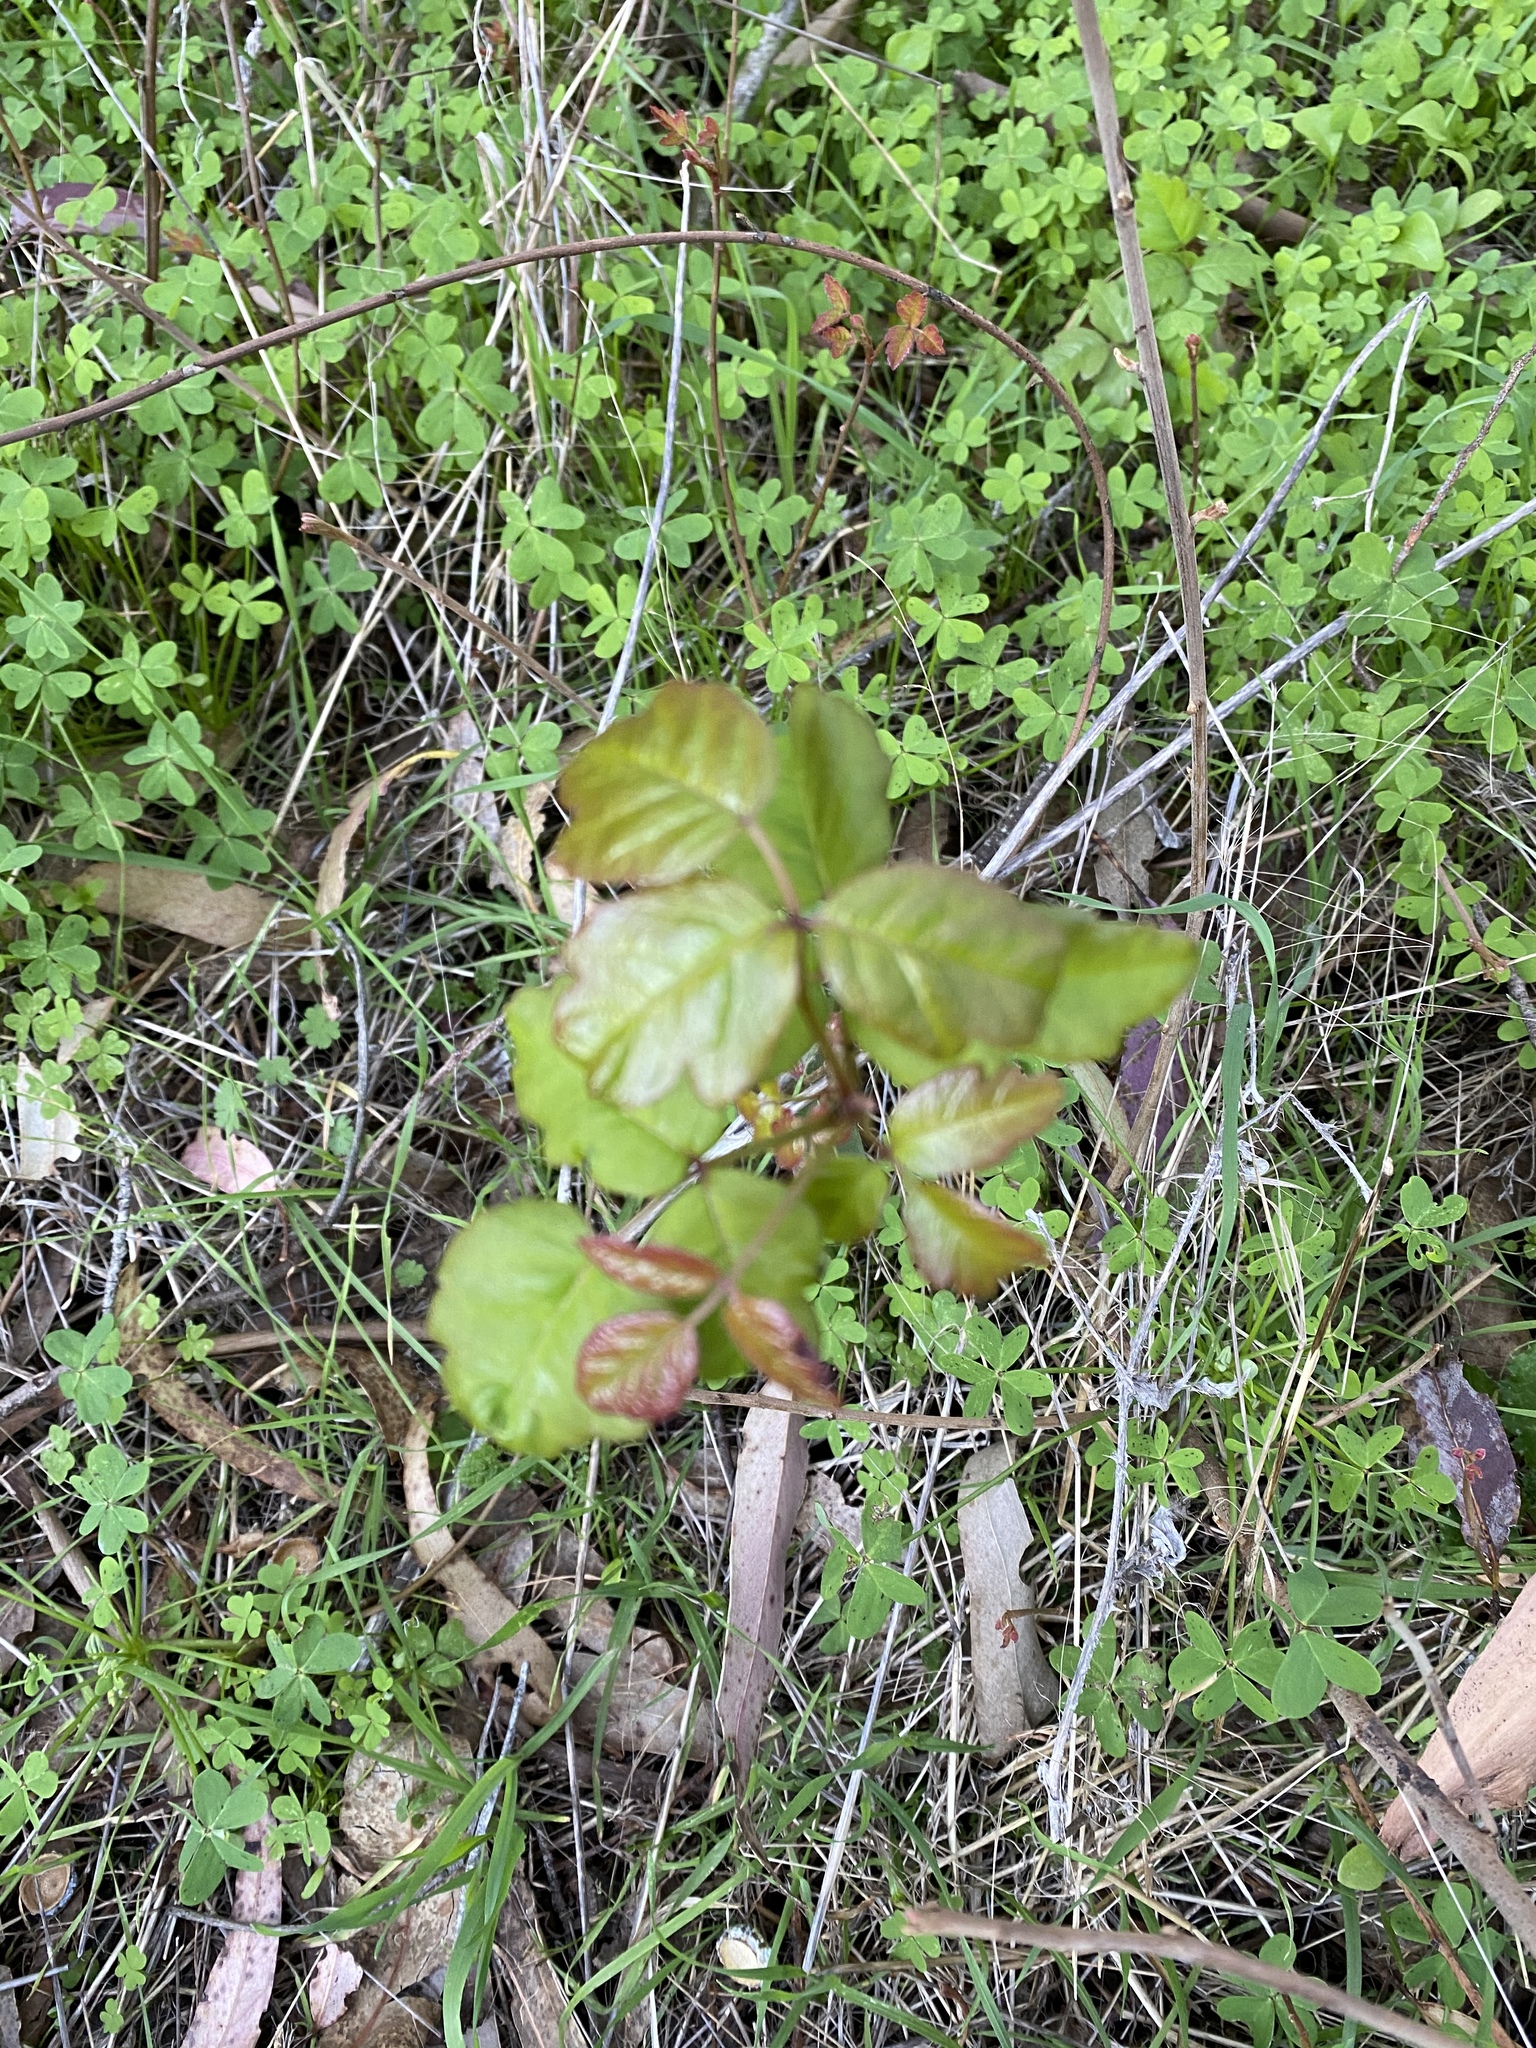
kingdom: Plantae
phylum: Tracheophyta
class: Magnoliopsida
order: Sapindales
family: Anacardiaceae
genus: Toxicodendron
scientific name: Toxicodendron diversilobum
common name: Pacific poison-oak
